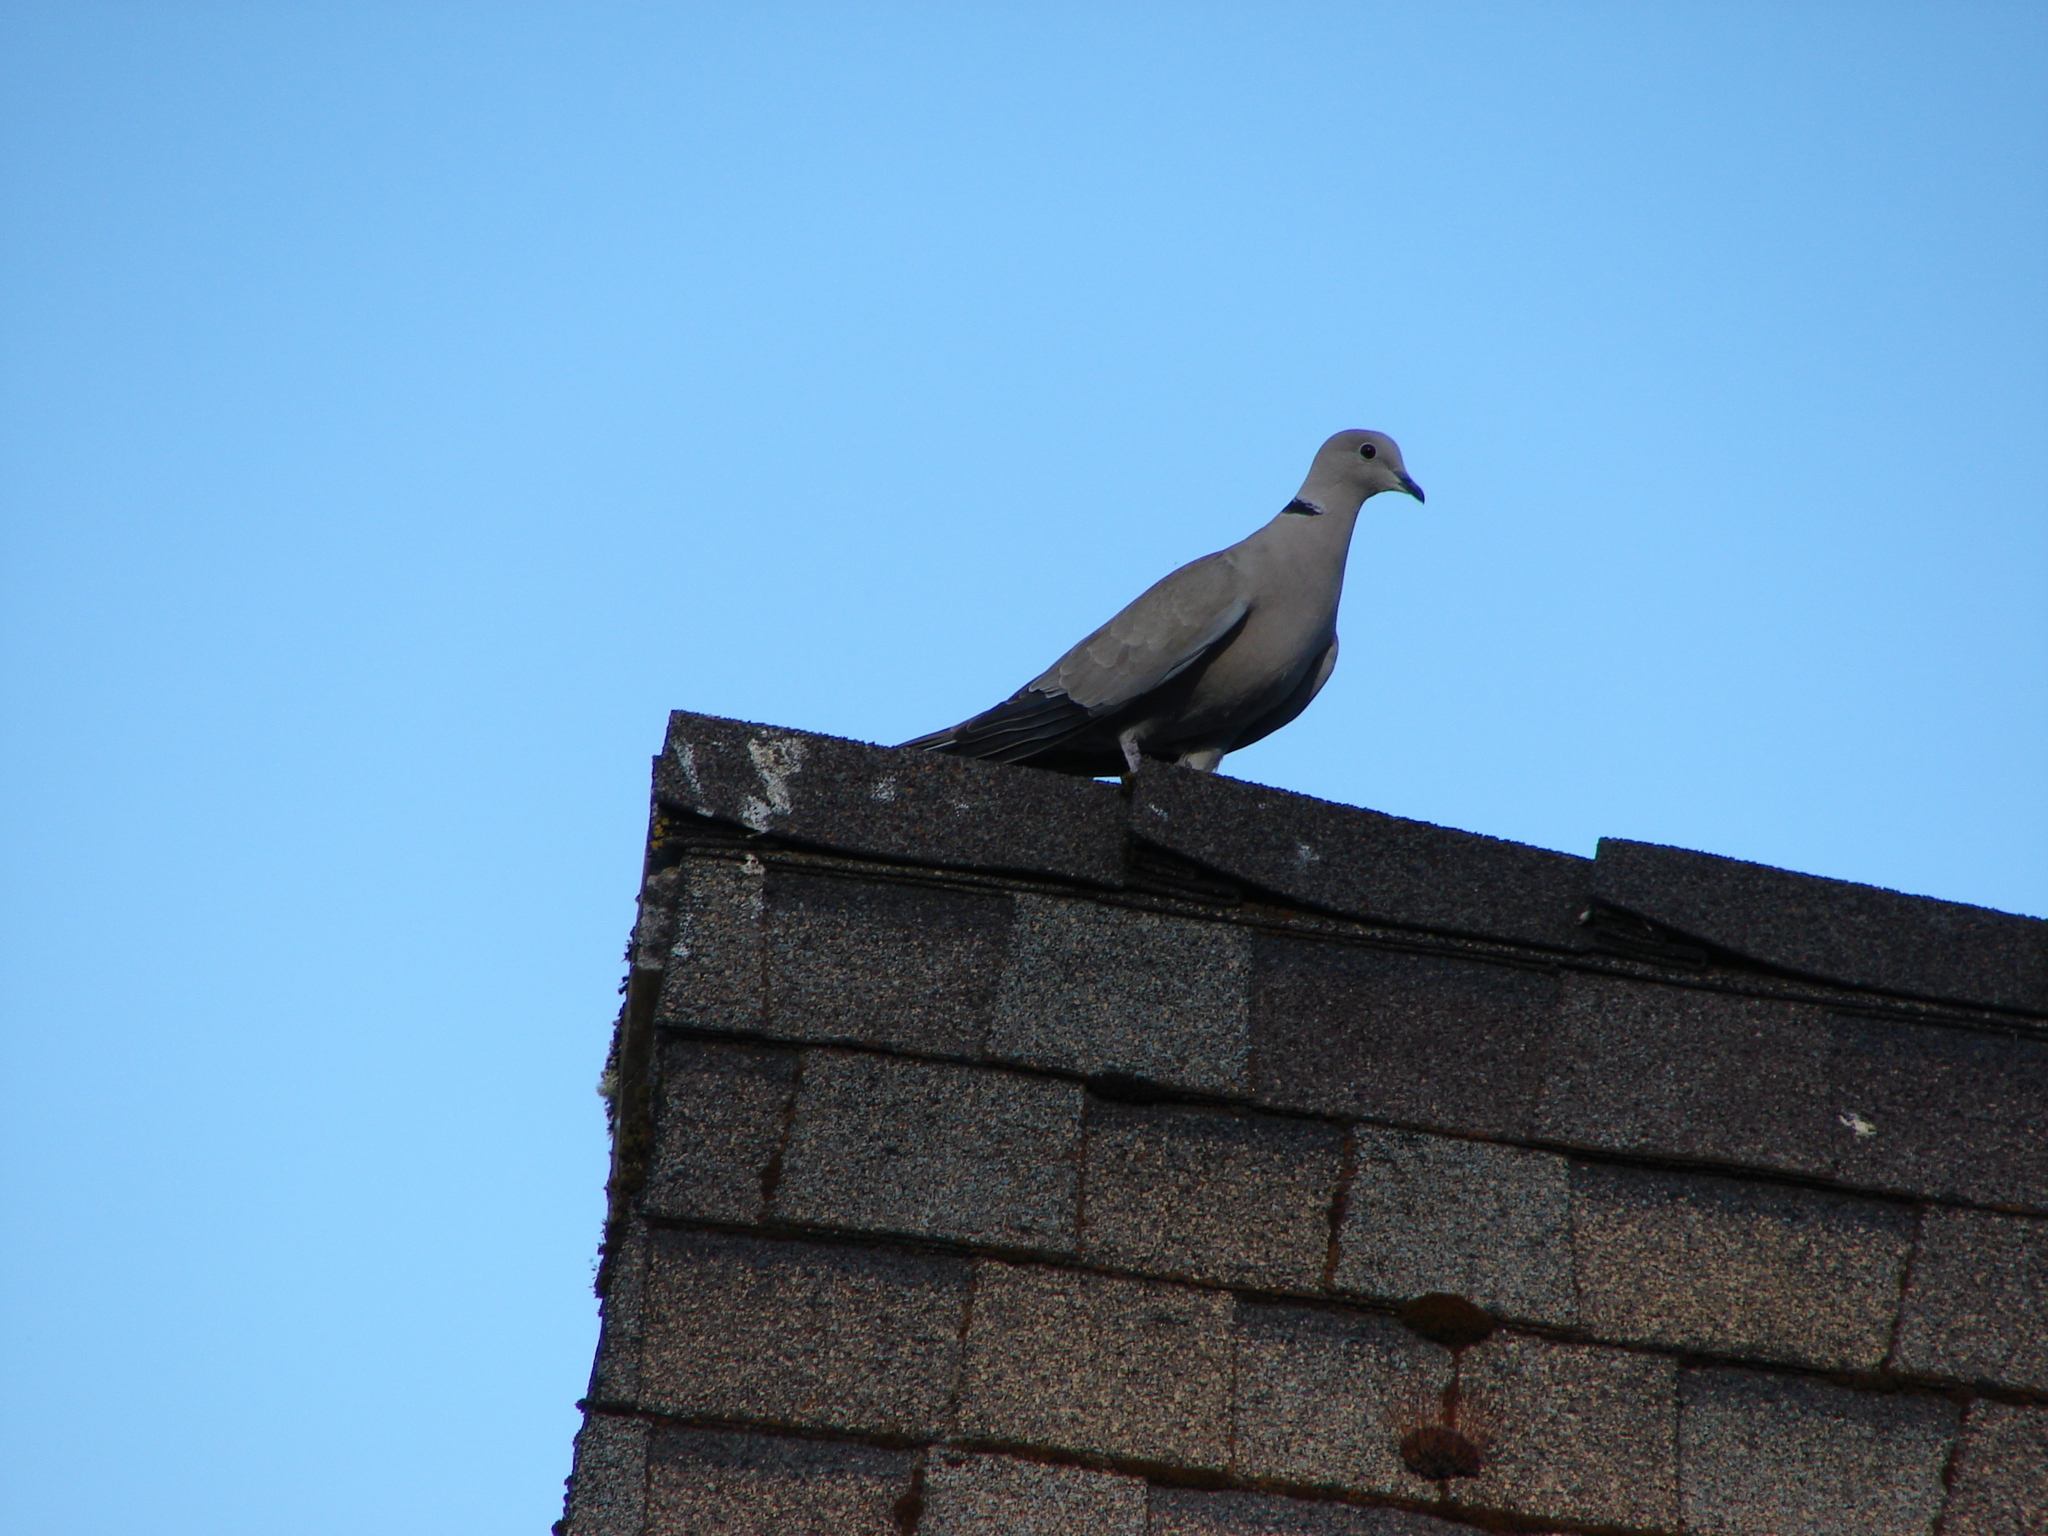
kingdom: Animalia
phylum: Chordata
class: Aves
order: Columbiformes
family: Columbidae
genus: Streptopelia
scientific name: Streptopelia decaocto
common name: Eurasian collared dove
